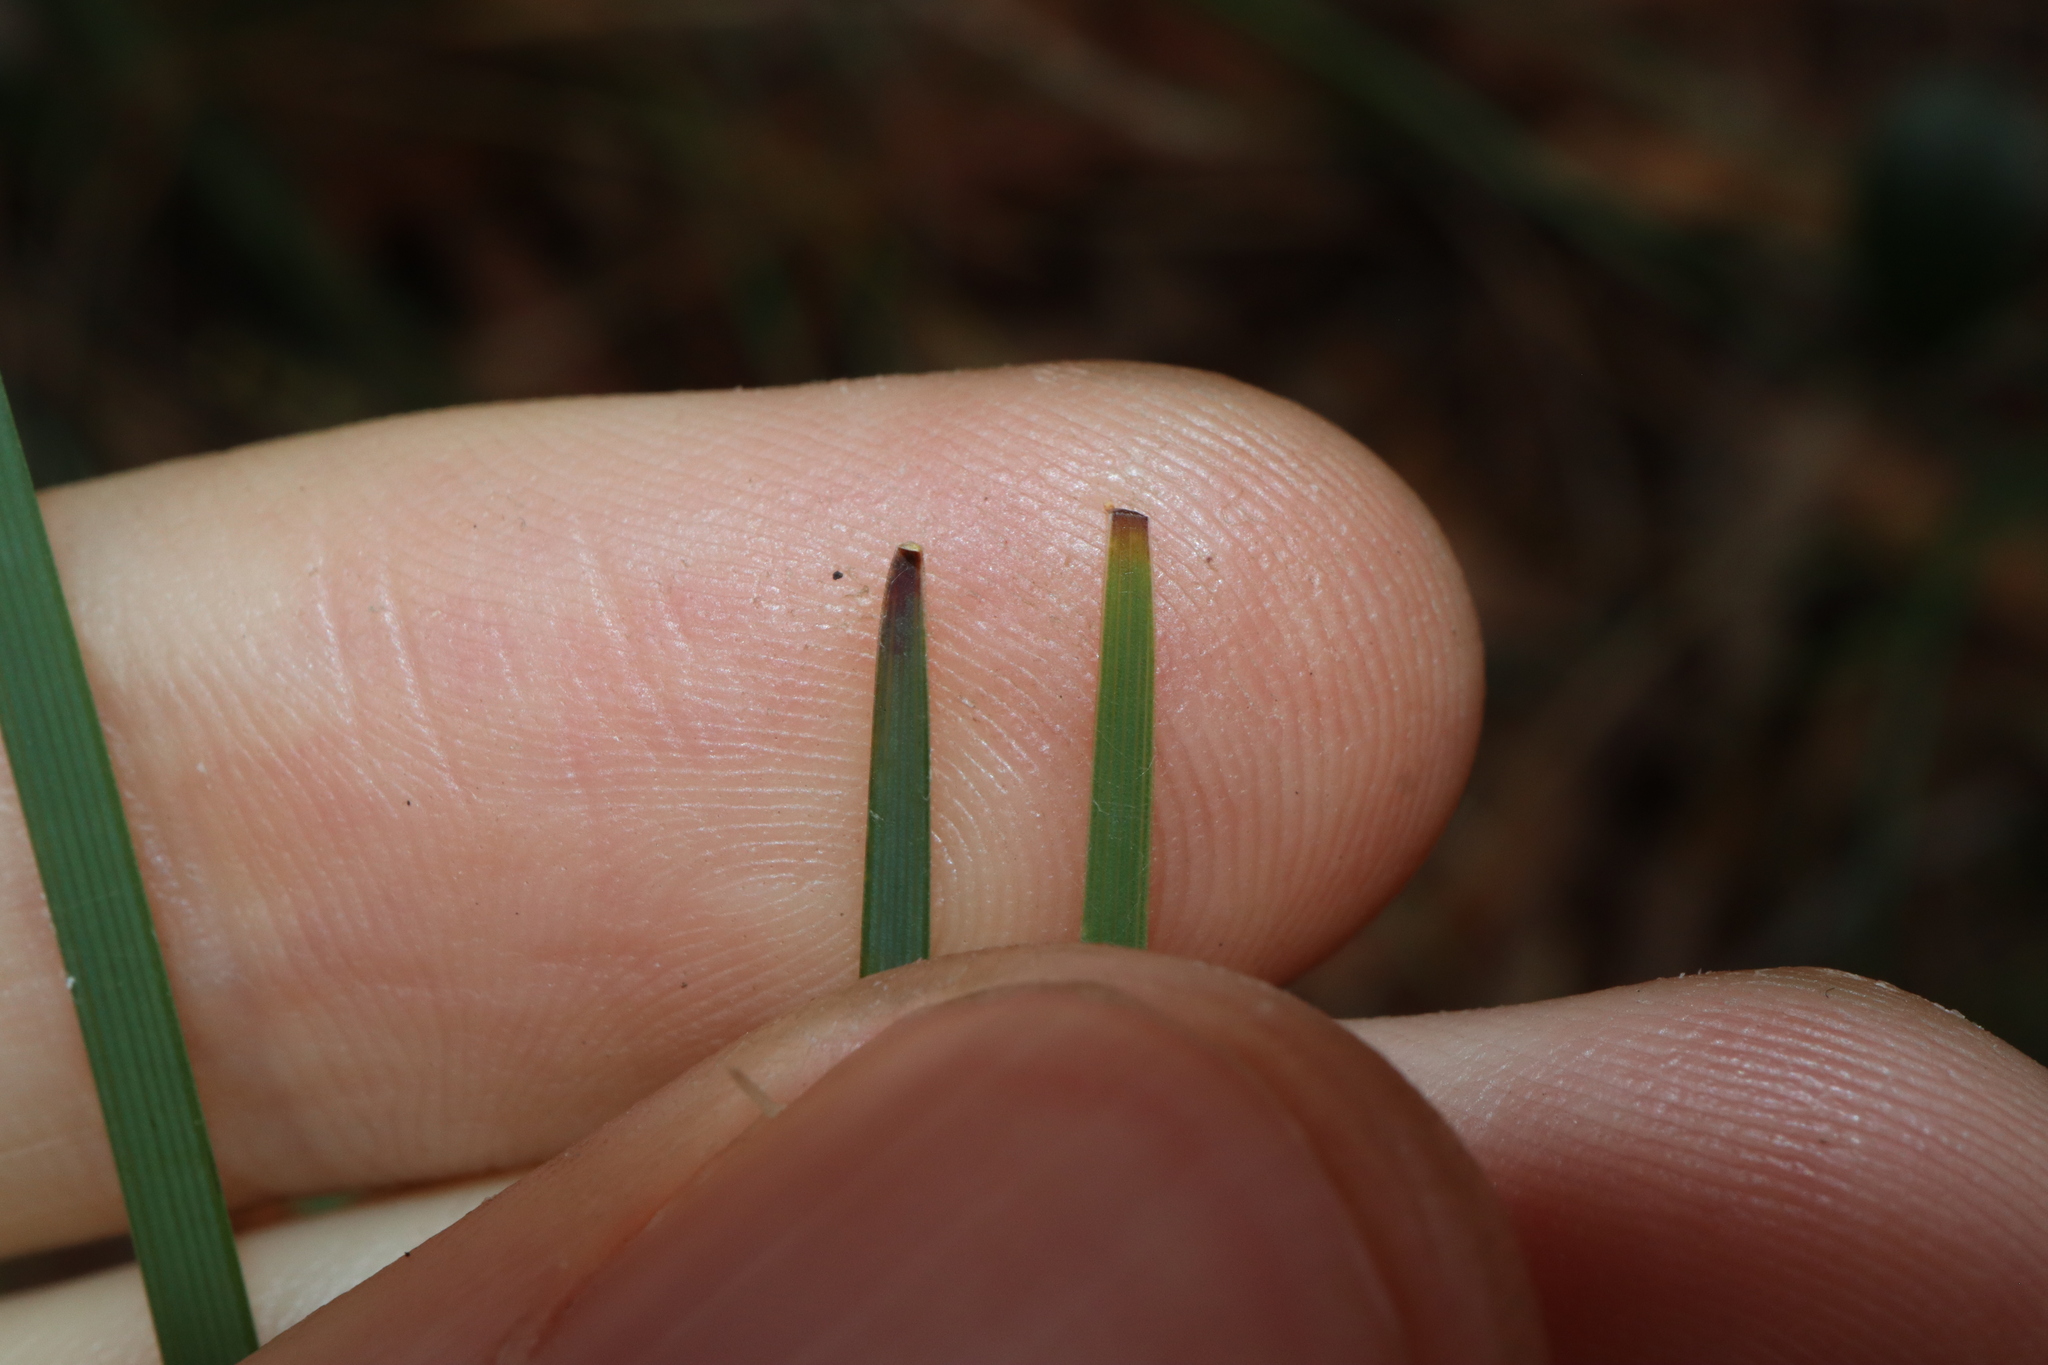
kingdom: Plantae
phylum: Tracheophyta
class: Liliopsida
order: Asparagales
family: Asparagaceae
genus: Lomandra
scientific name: Lomandra filiformis
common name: Wattle mat-rush
